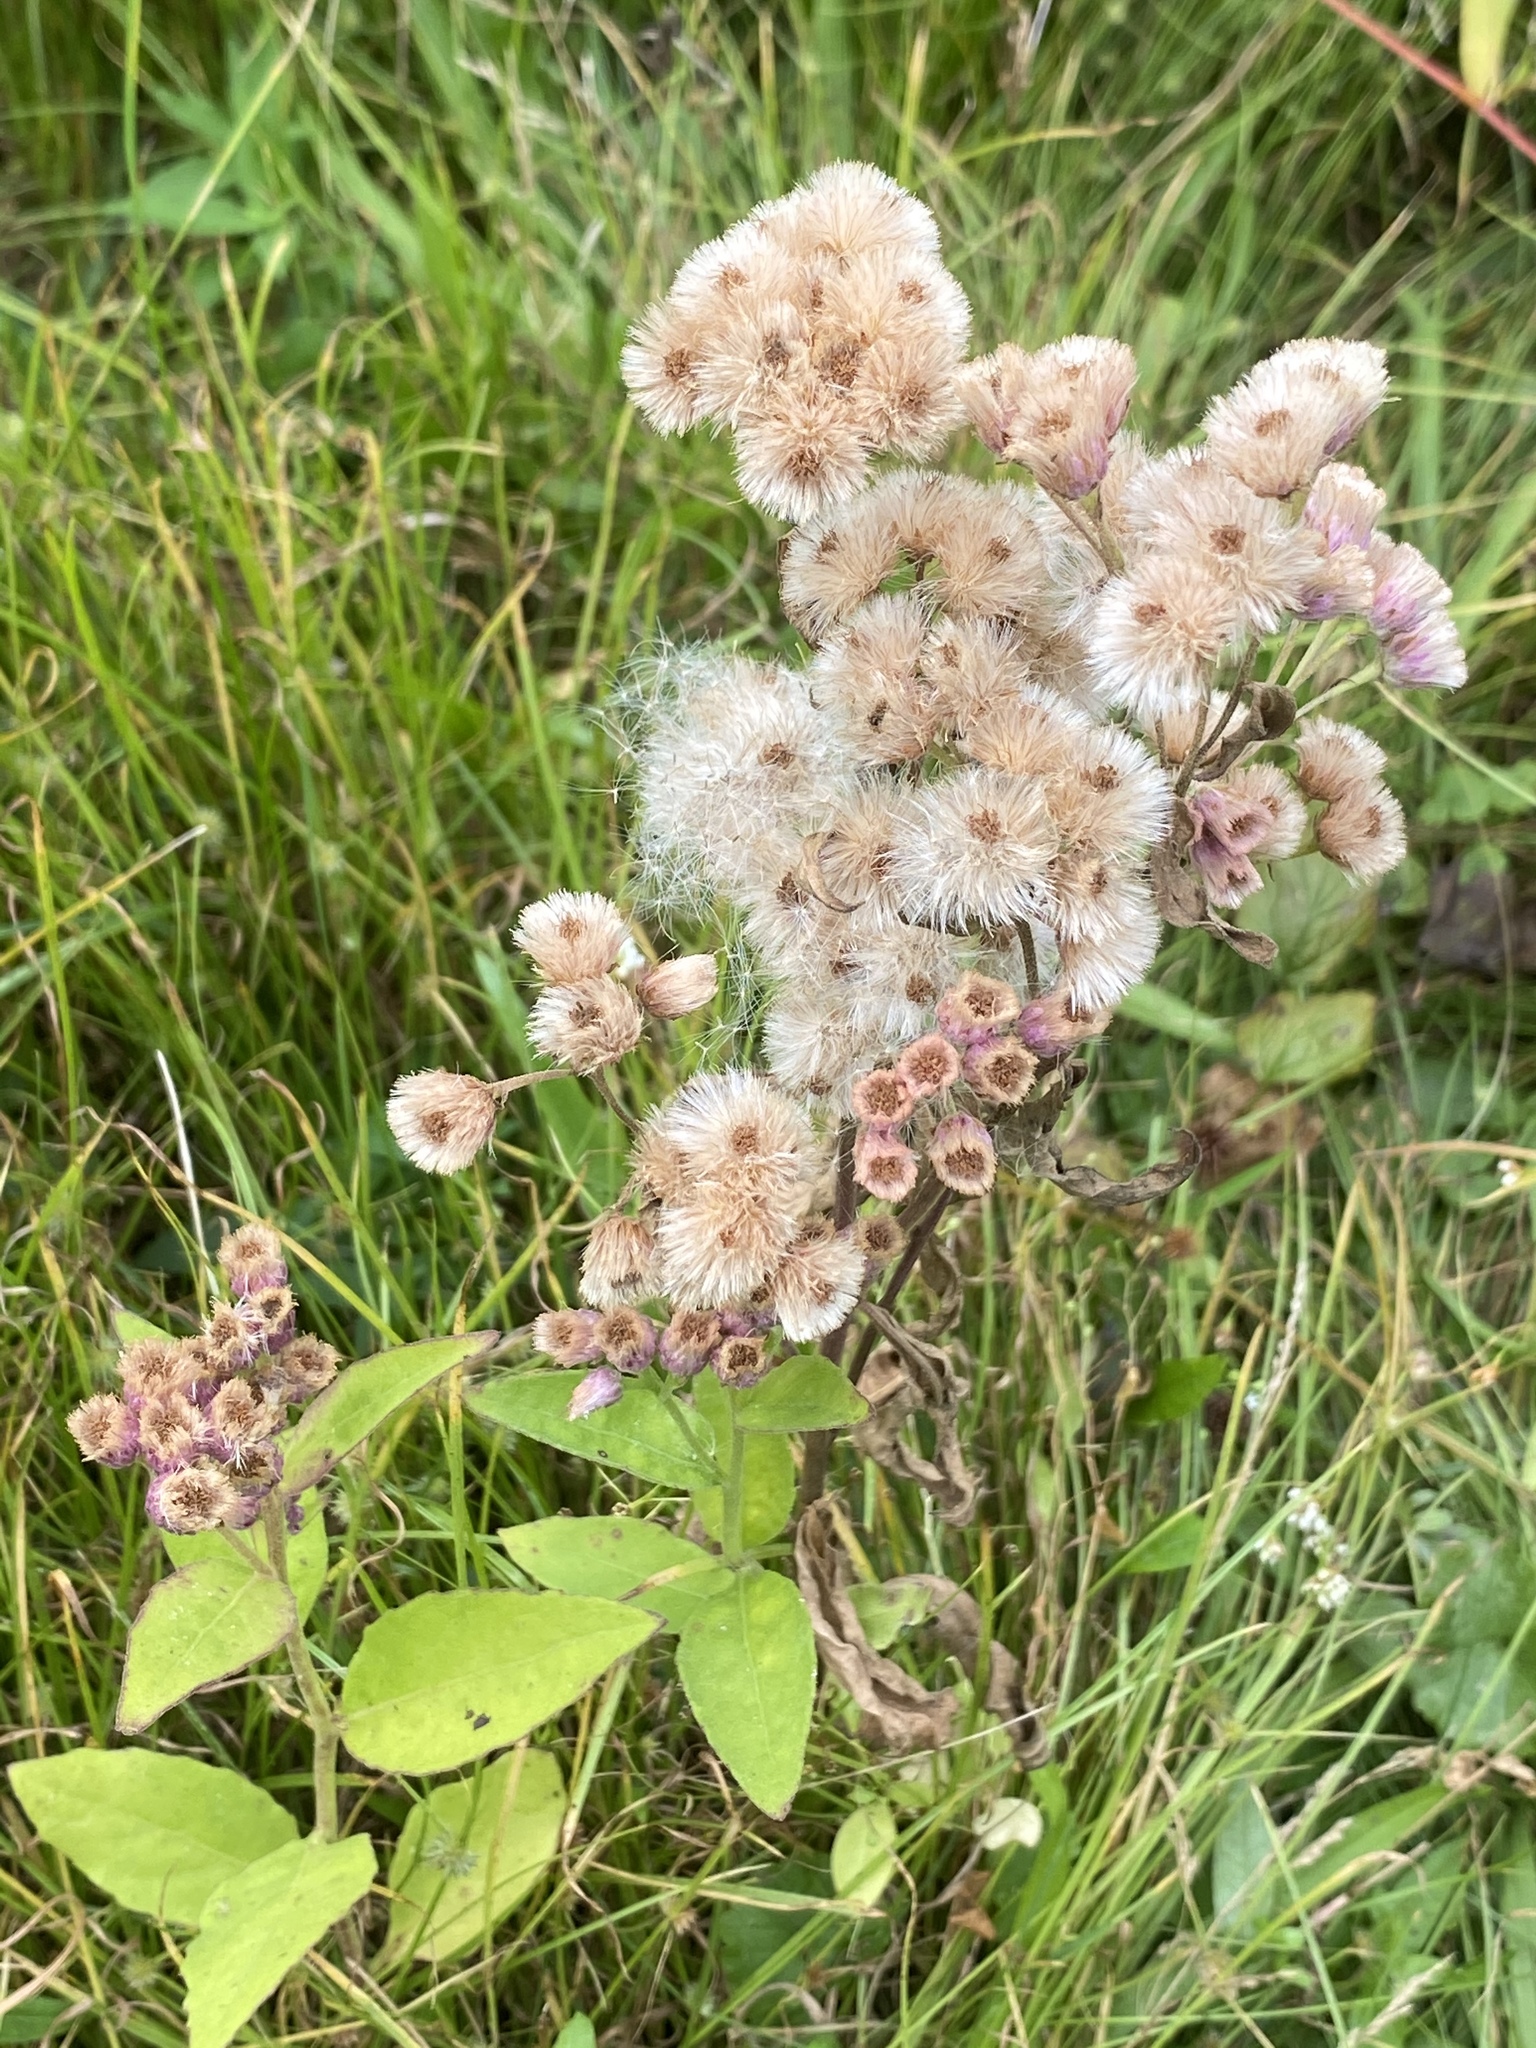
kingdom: Plantae
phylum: Tracheophyta
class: Magnoliopsida
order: Asterales
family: Asteraceae
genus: Pluchea
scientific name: Pluchea odorata
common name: Saltmarsh fleabane
